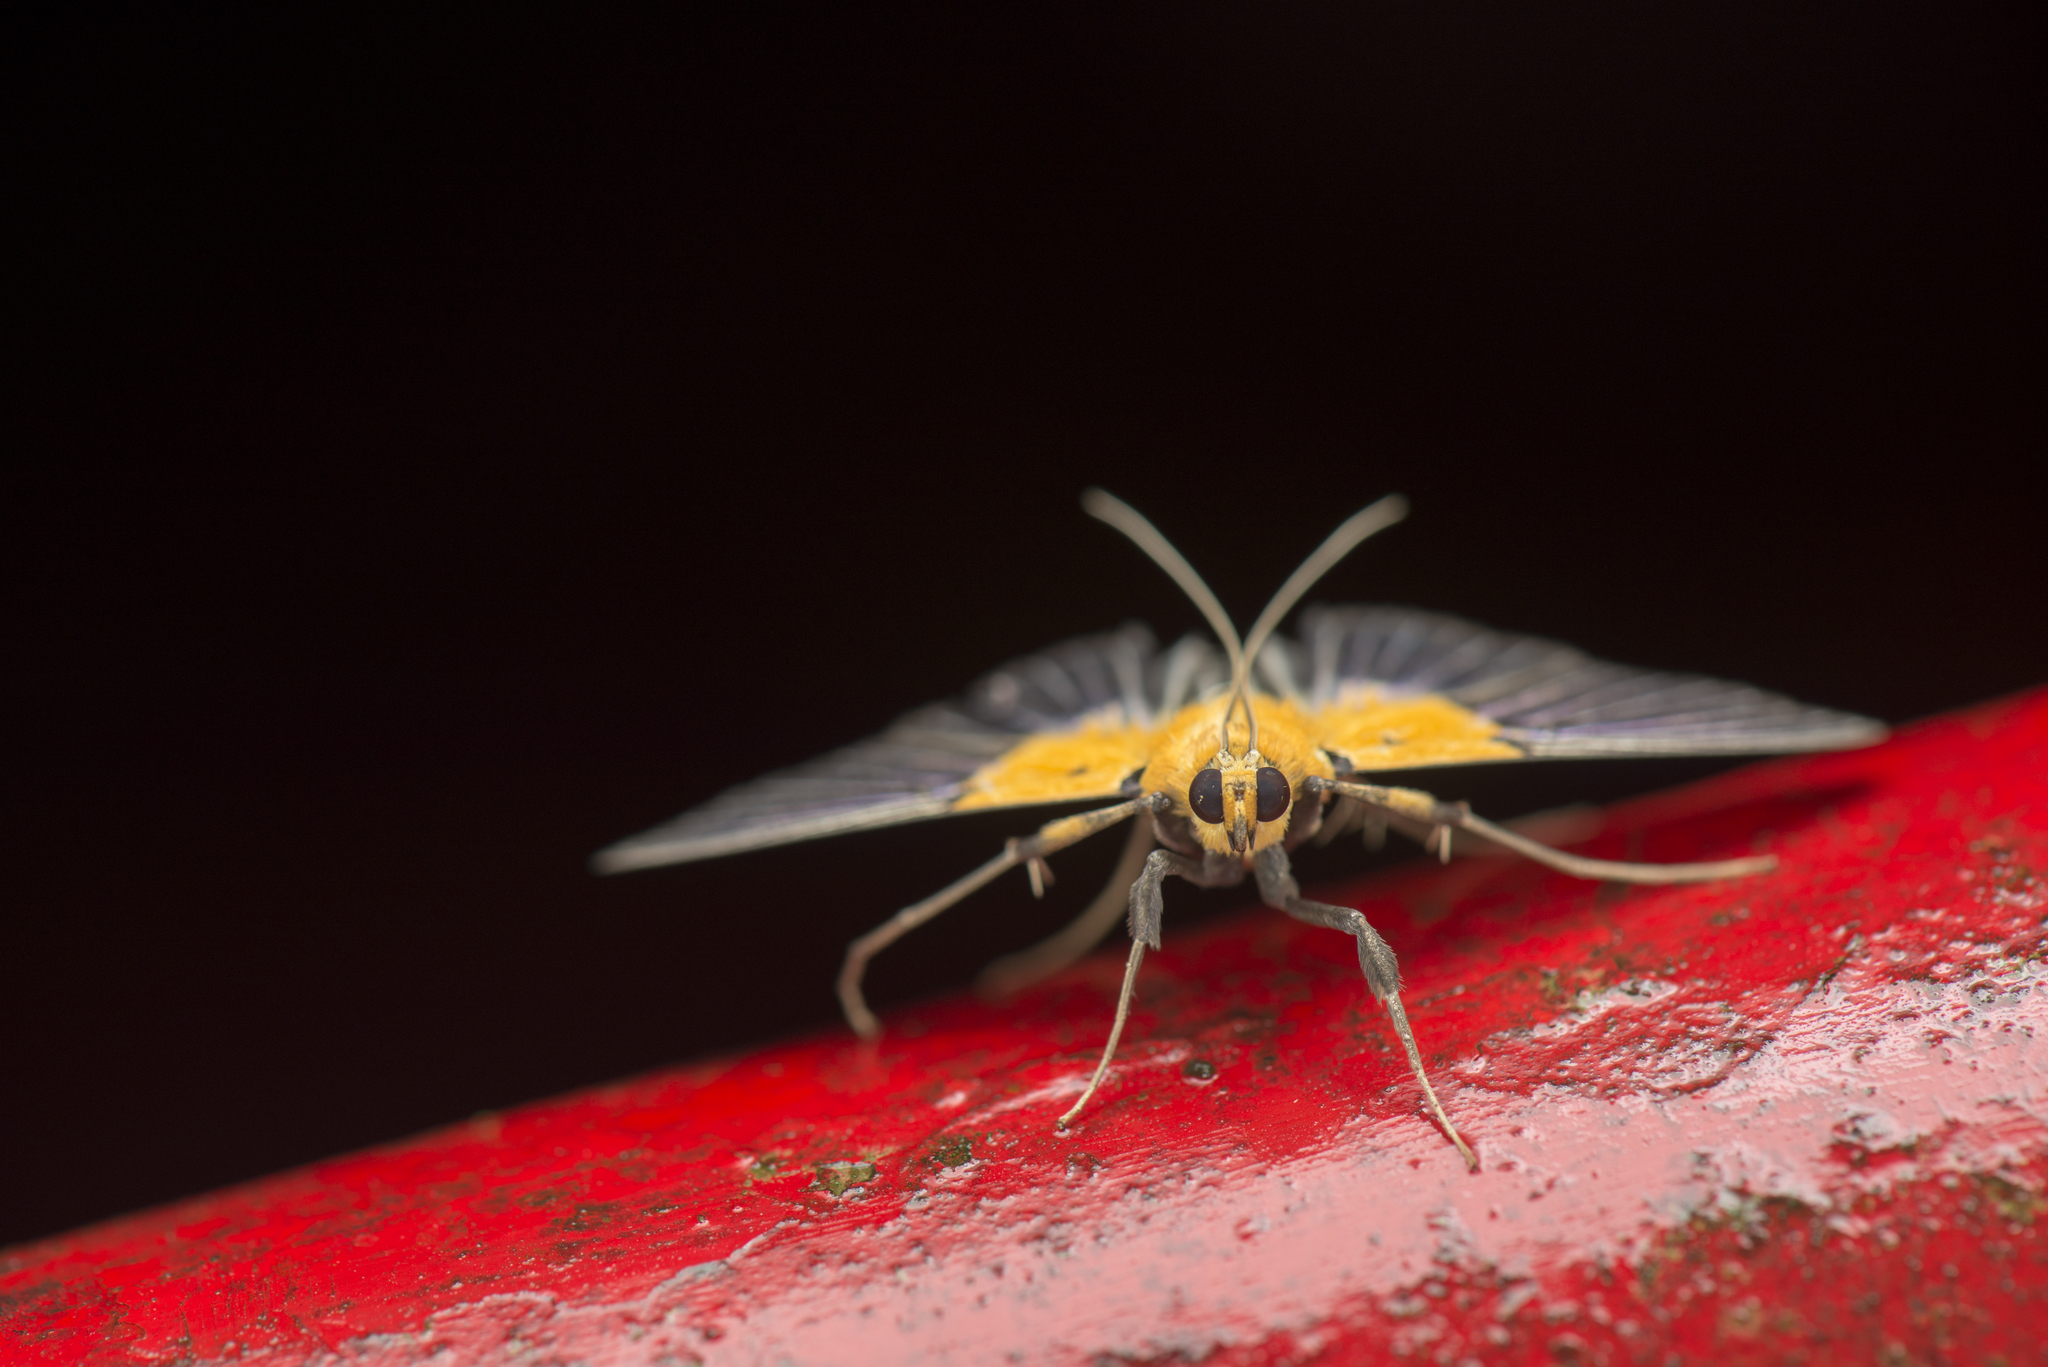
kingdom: Animalia
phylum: Arthropoda
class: Insecta
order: Lepidoptera
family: Crambidae
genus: Nevrina
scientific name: Nevrina procopia
